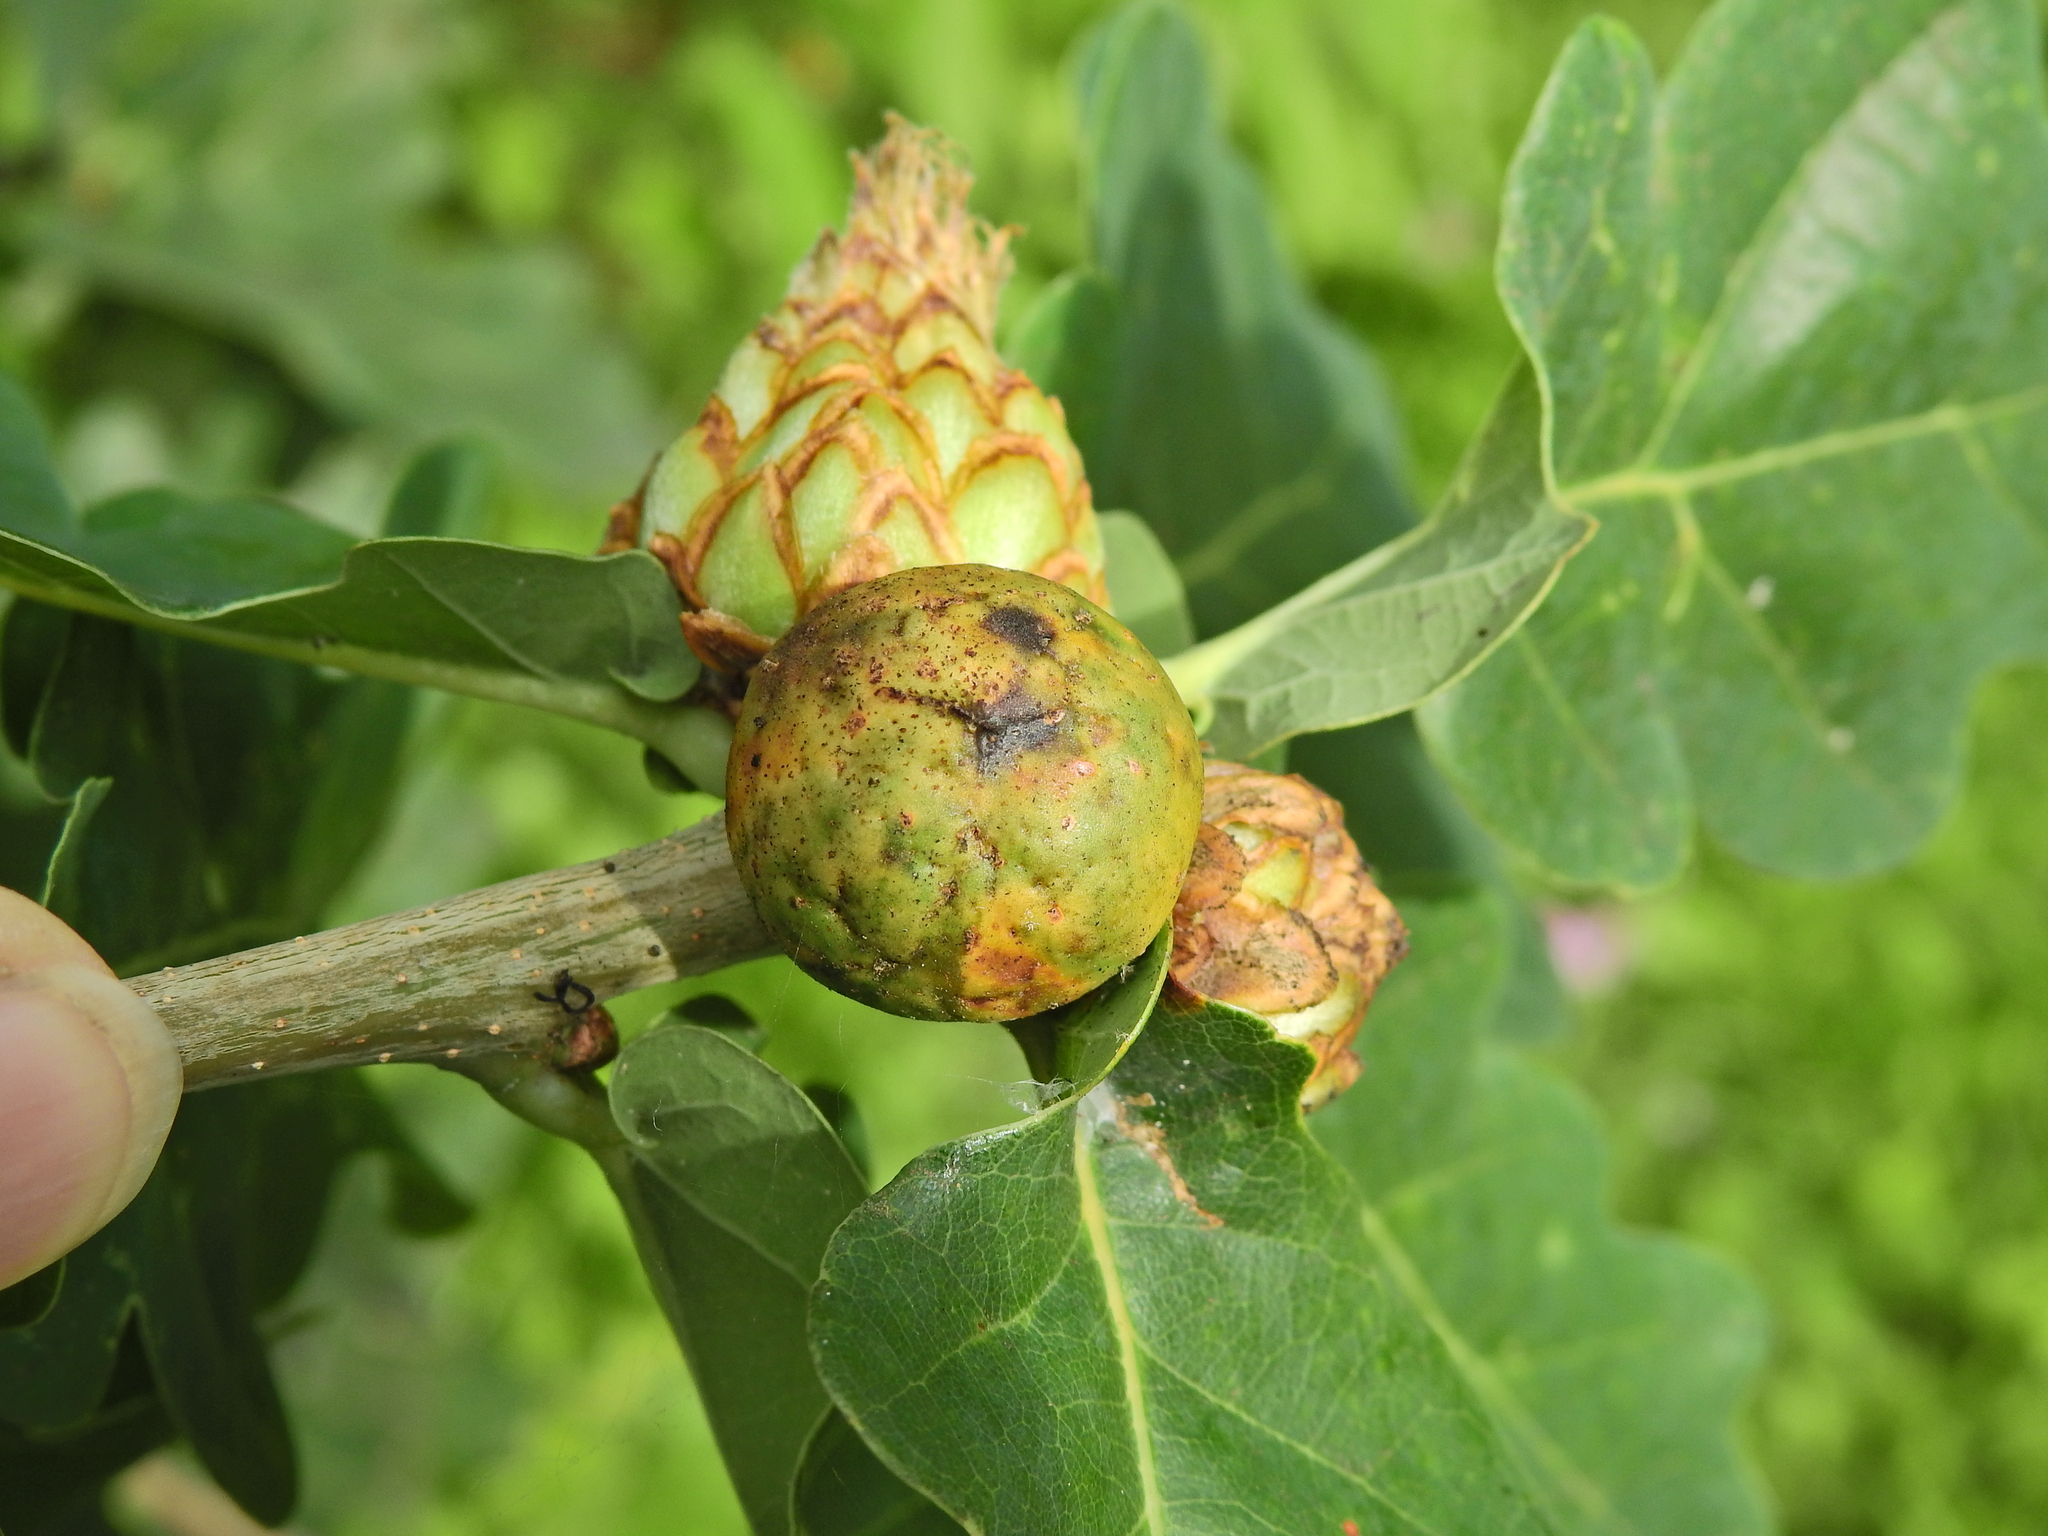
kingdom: Animalia
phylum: Arthropoda
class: Insecta
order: Hymenoptera
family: Cynipidae
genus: Andricus
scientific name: Andricus kollari
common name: Marble gall
